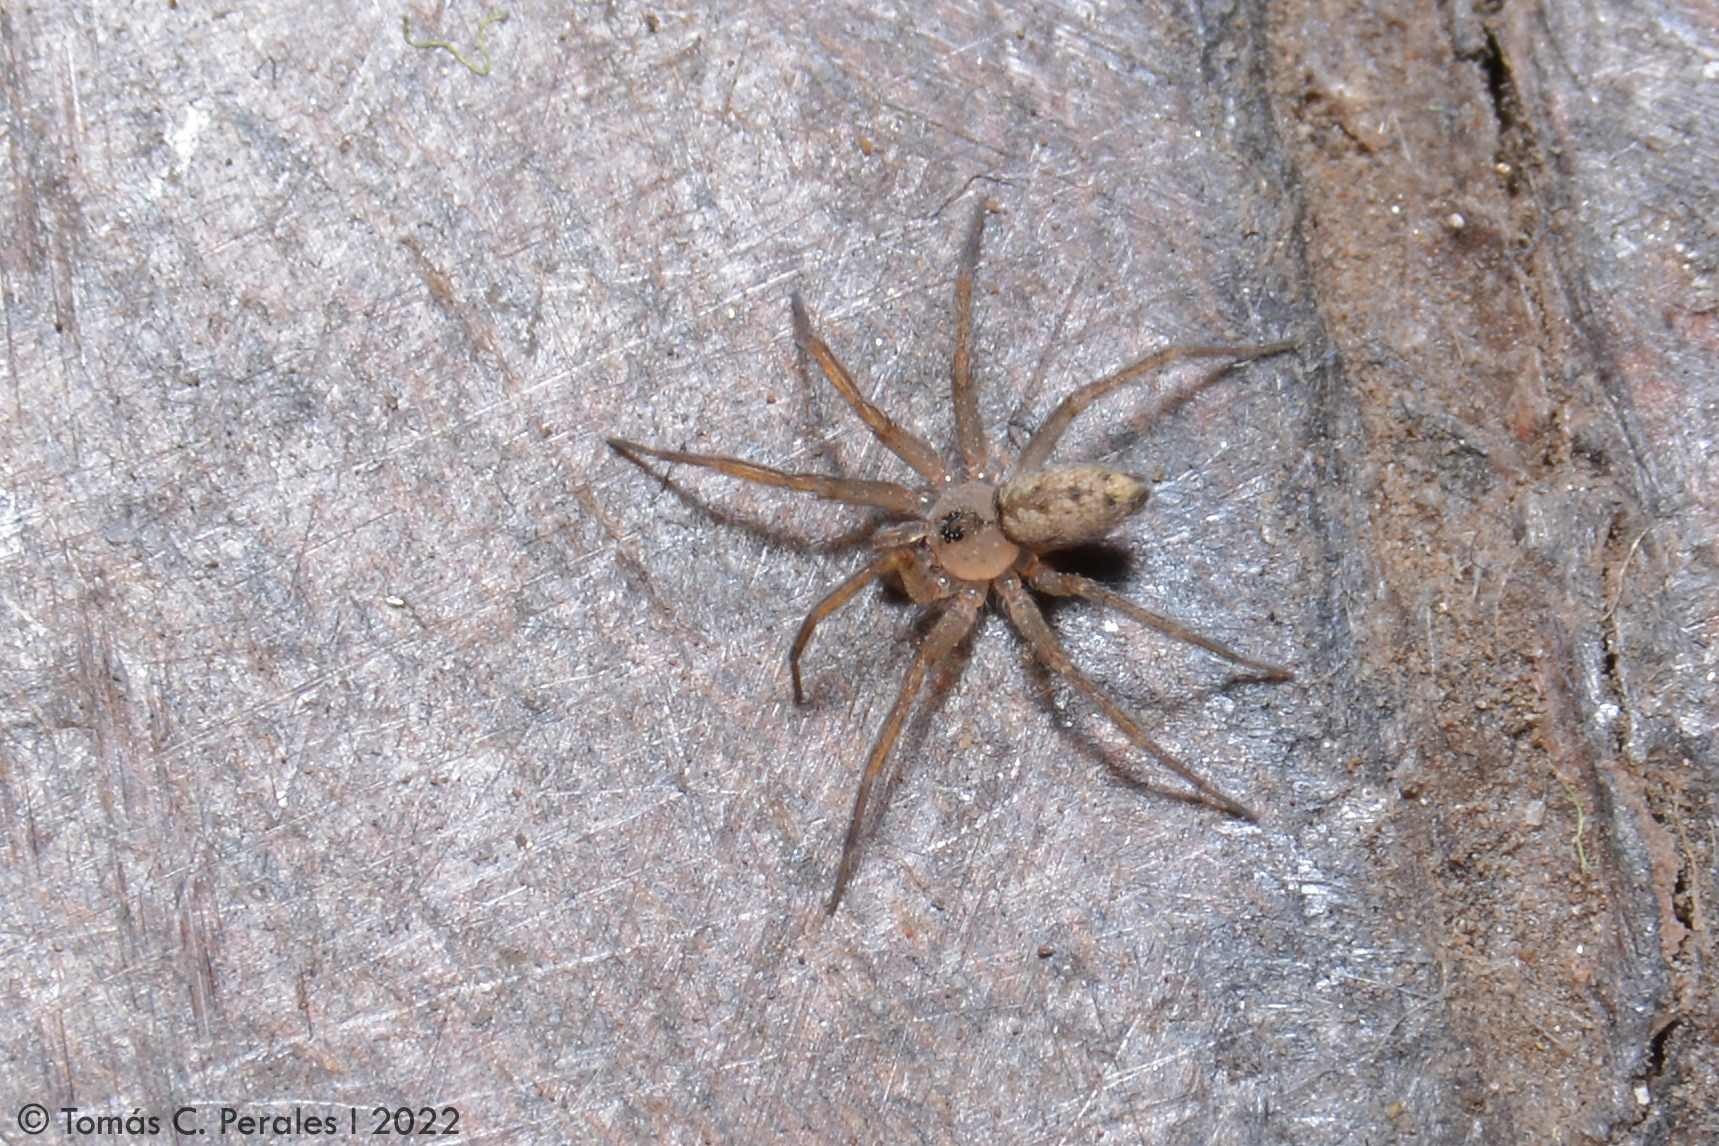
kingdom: Animalia
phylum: Arthropoda
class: Arachnida
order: Araneae
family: Oecobiidae
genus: Oecobius
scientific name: Oecobius navus
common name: Flatmesh weaver
